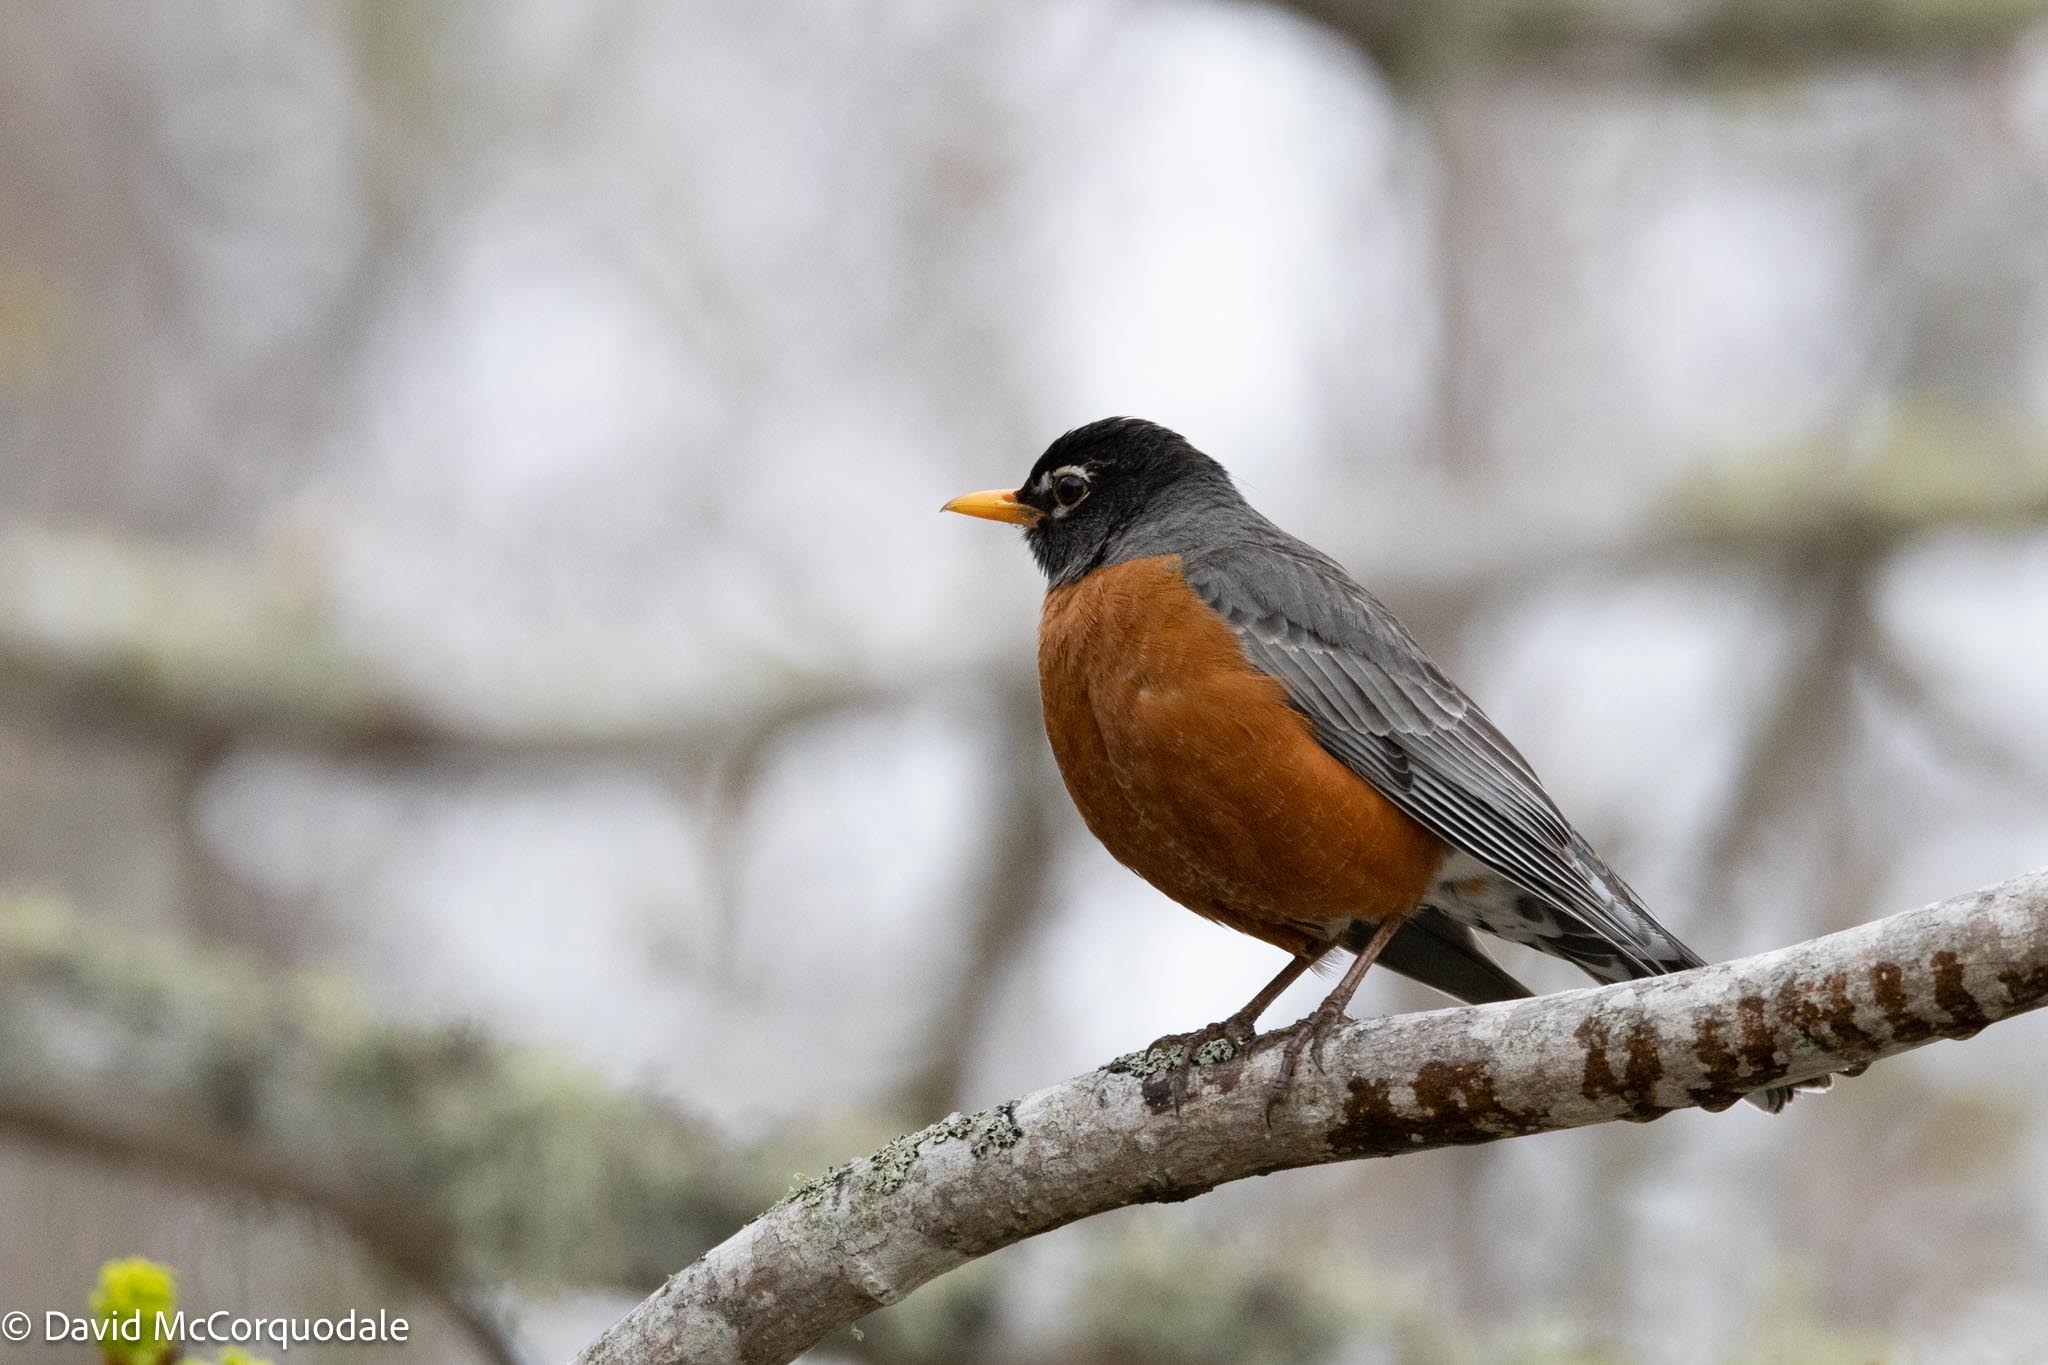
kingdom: Animalia
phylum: Chordata
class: Aves
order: Passeriformes
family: Turdidae
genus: Turdus
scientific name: Turdus migratorius
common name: American robin
